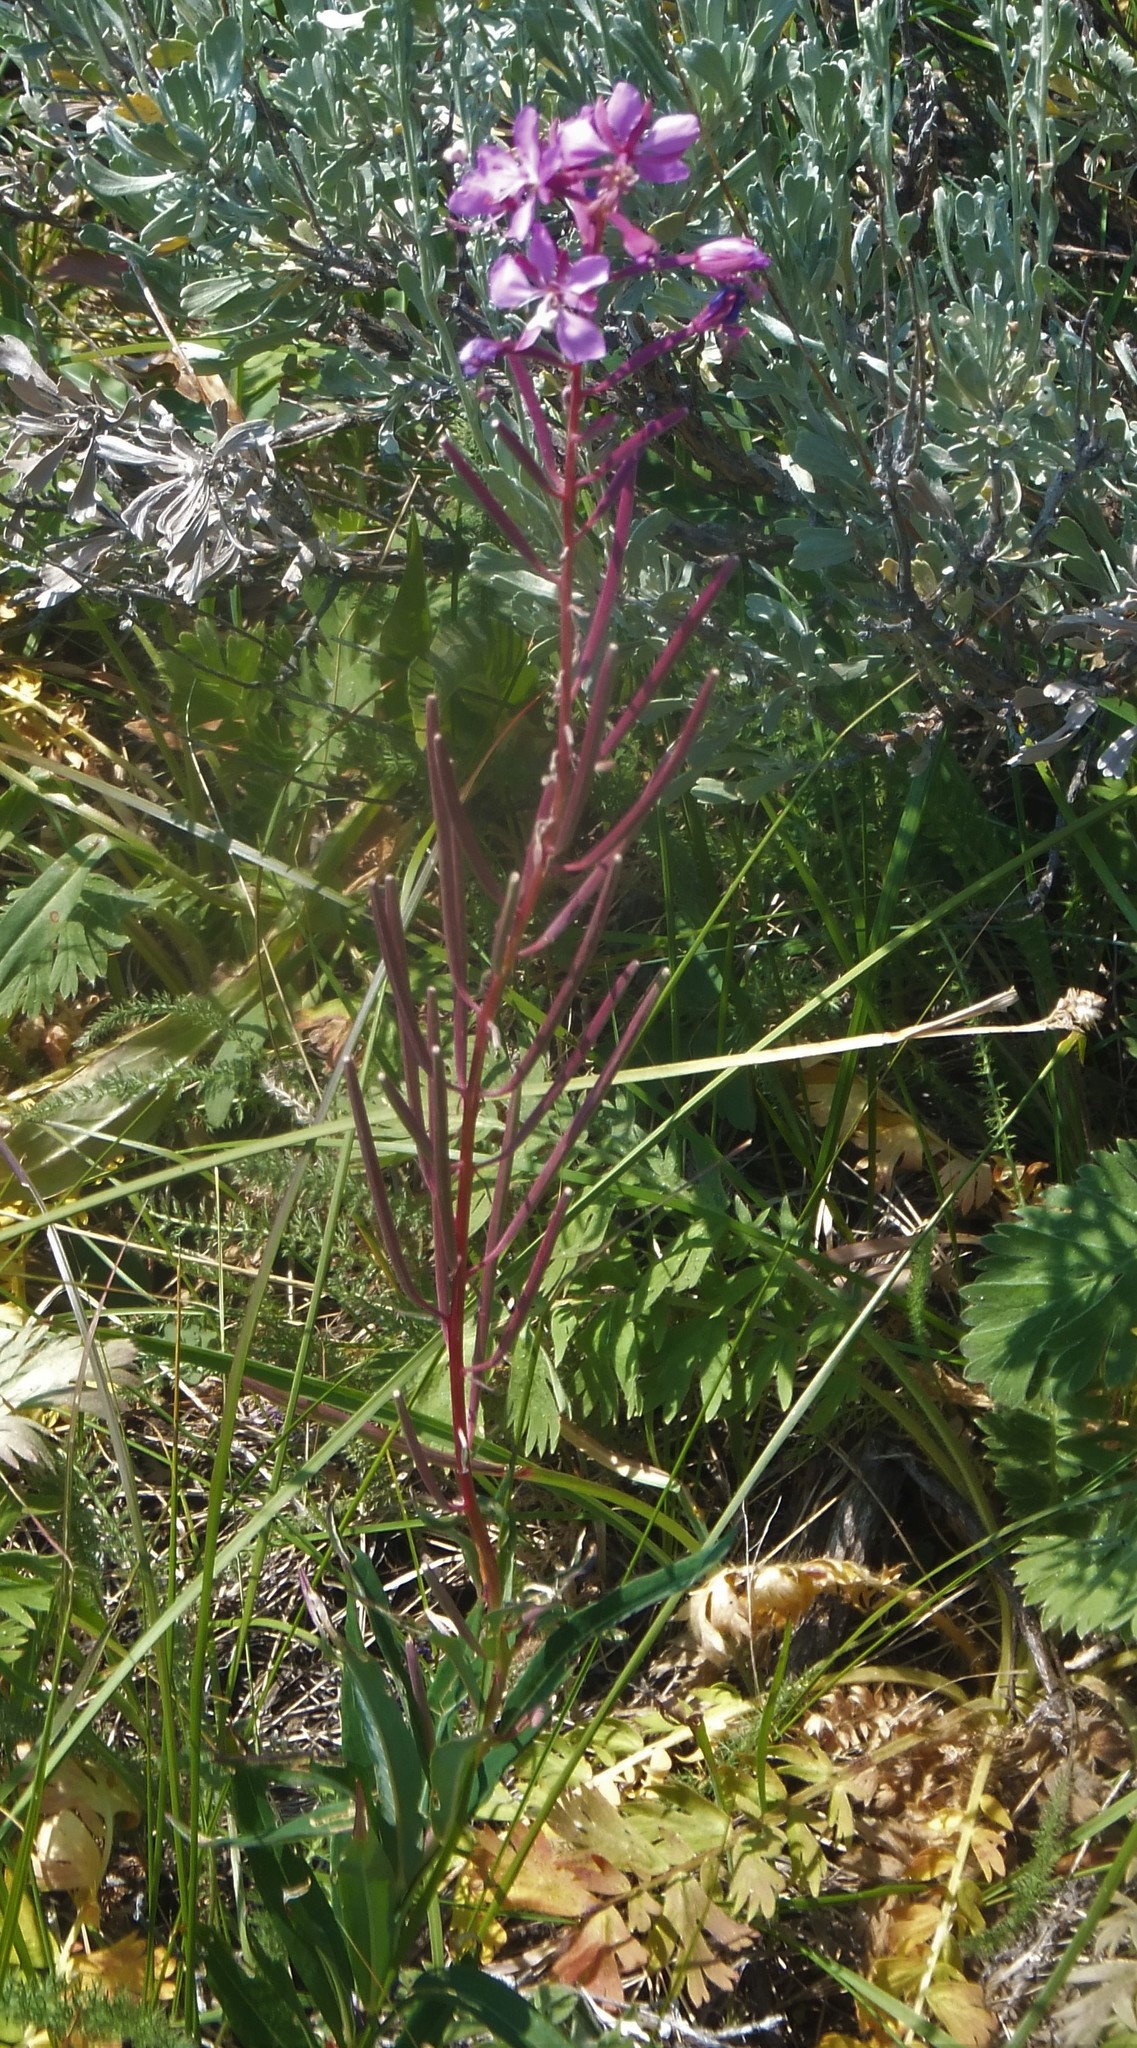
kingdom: Plantae
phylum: Tracheophyta
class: Magnoliopsida
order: Myrtales
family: Onagraceae
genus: Chamaenerion
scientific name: Chamaenerion angustifolium
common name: Fireweed
